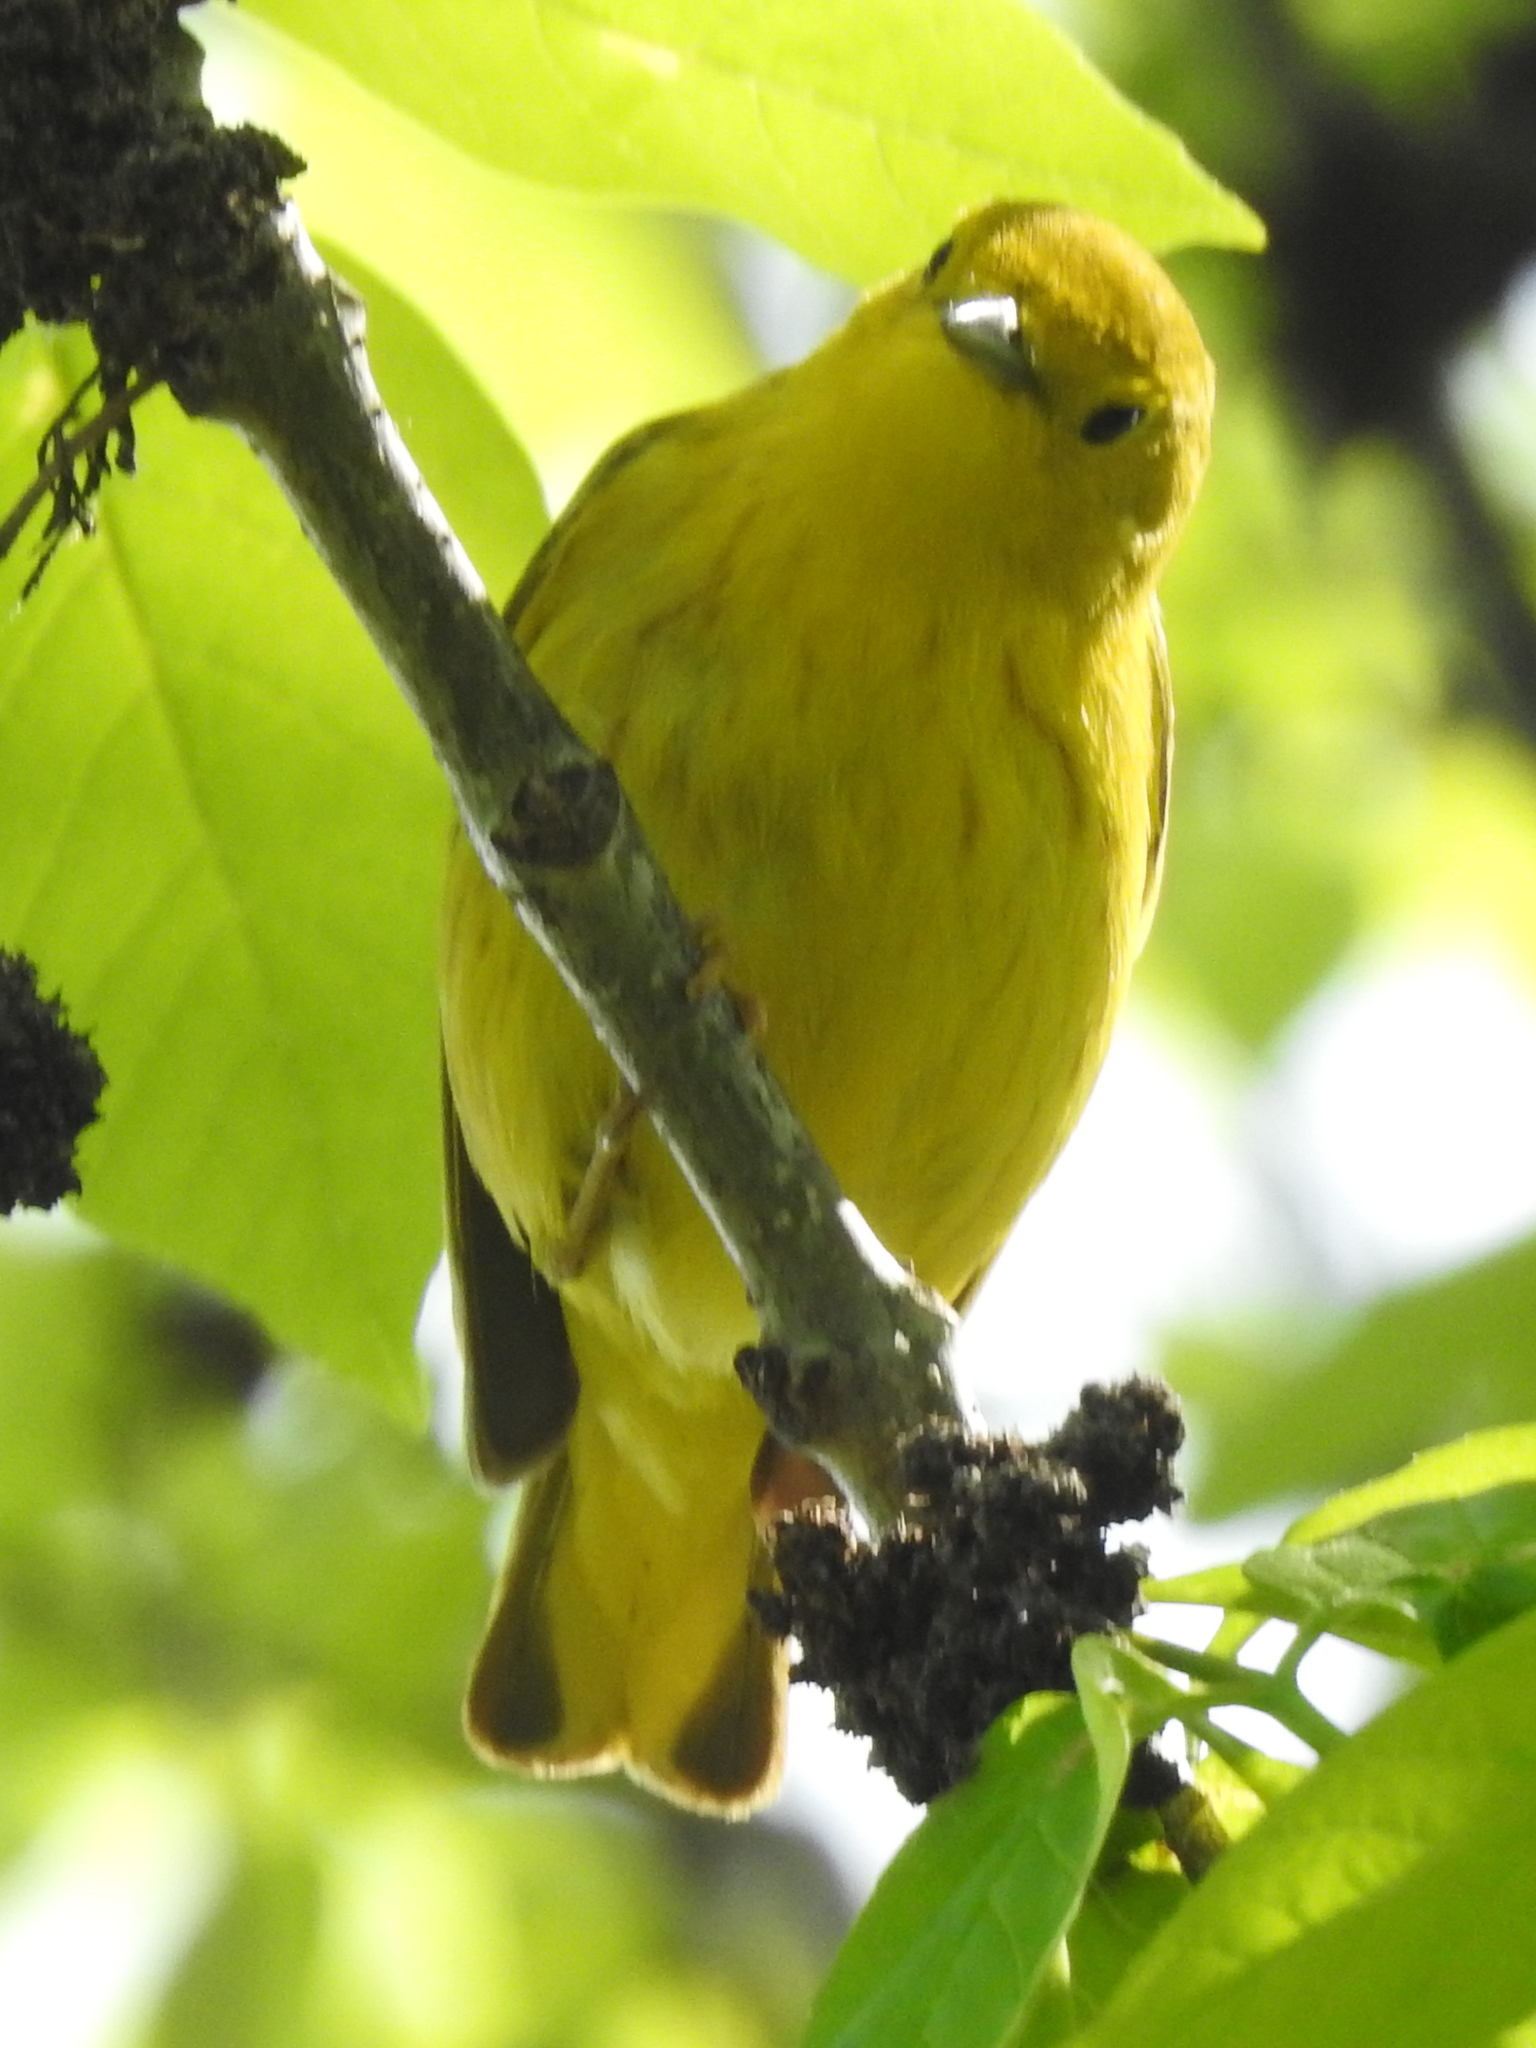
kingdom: Animalia
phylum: Chordata
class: Aves
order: Passeriformes
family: Parulidae
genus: Setophaga
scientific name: Setophaga petechia
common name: Yellow warbler
